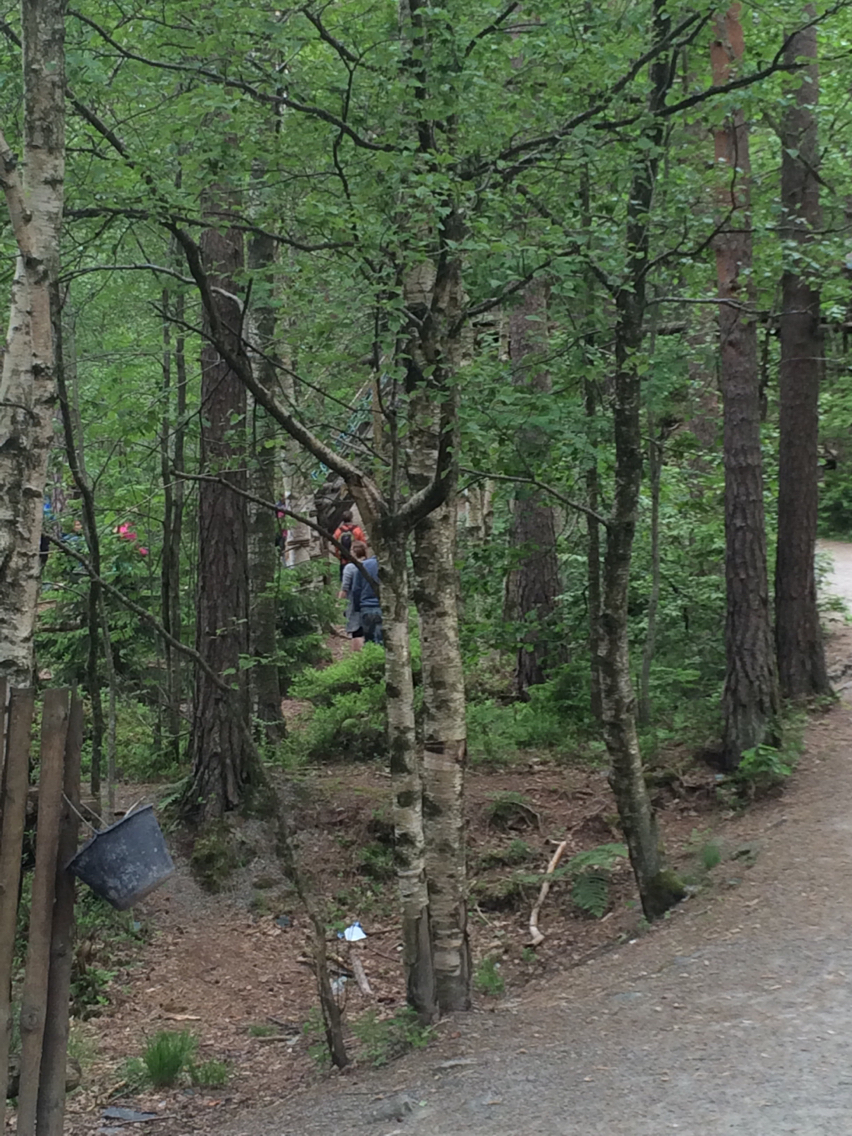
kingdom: Plantae
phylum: Tracheophyta
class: Magnoliopsida
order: Fagales
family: Betulaceae
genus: Betula
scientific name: Betula pubescens
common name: Downy birch
